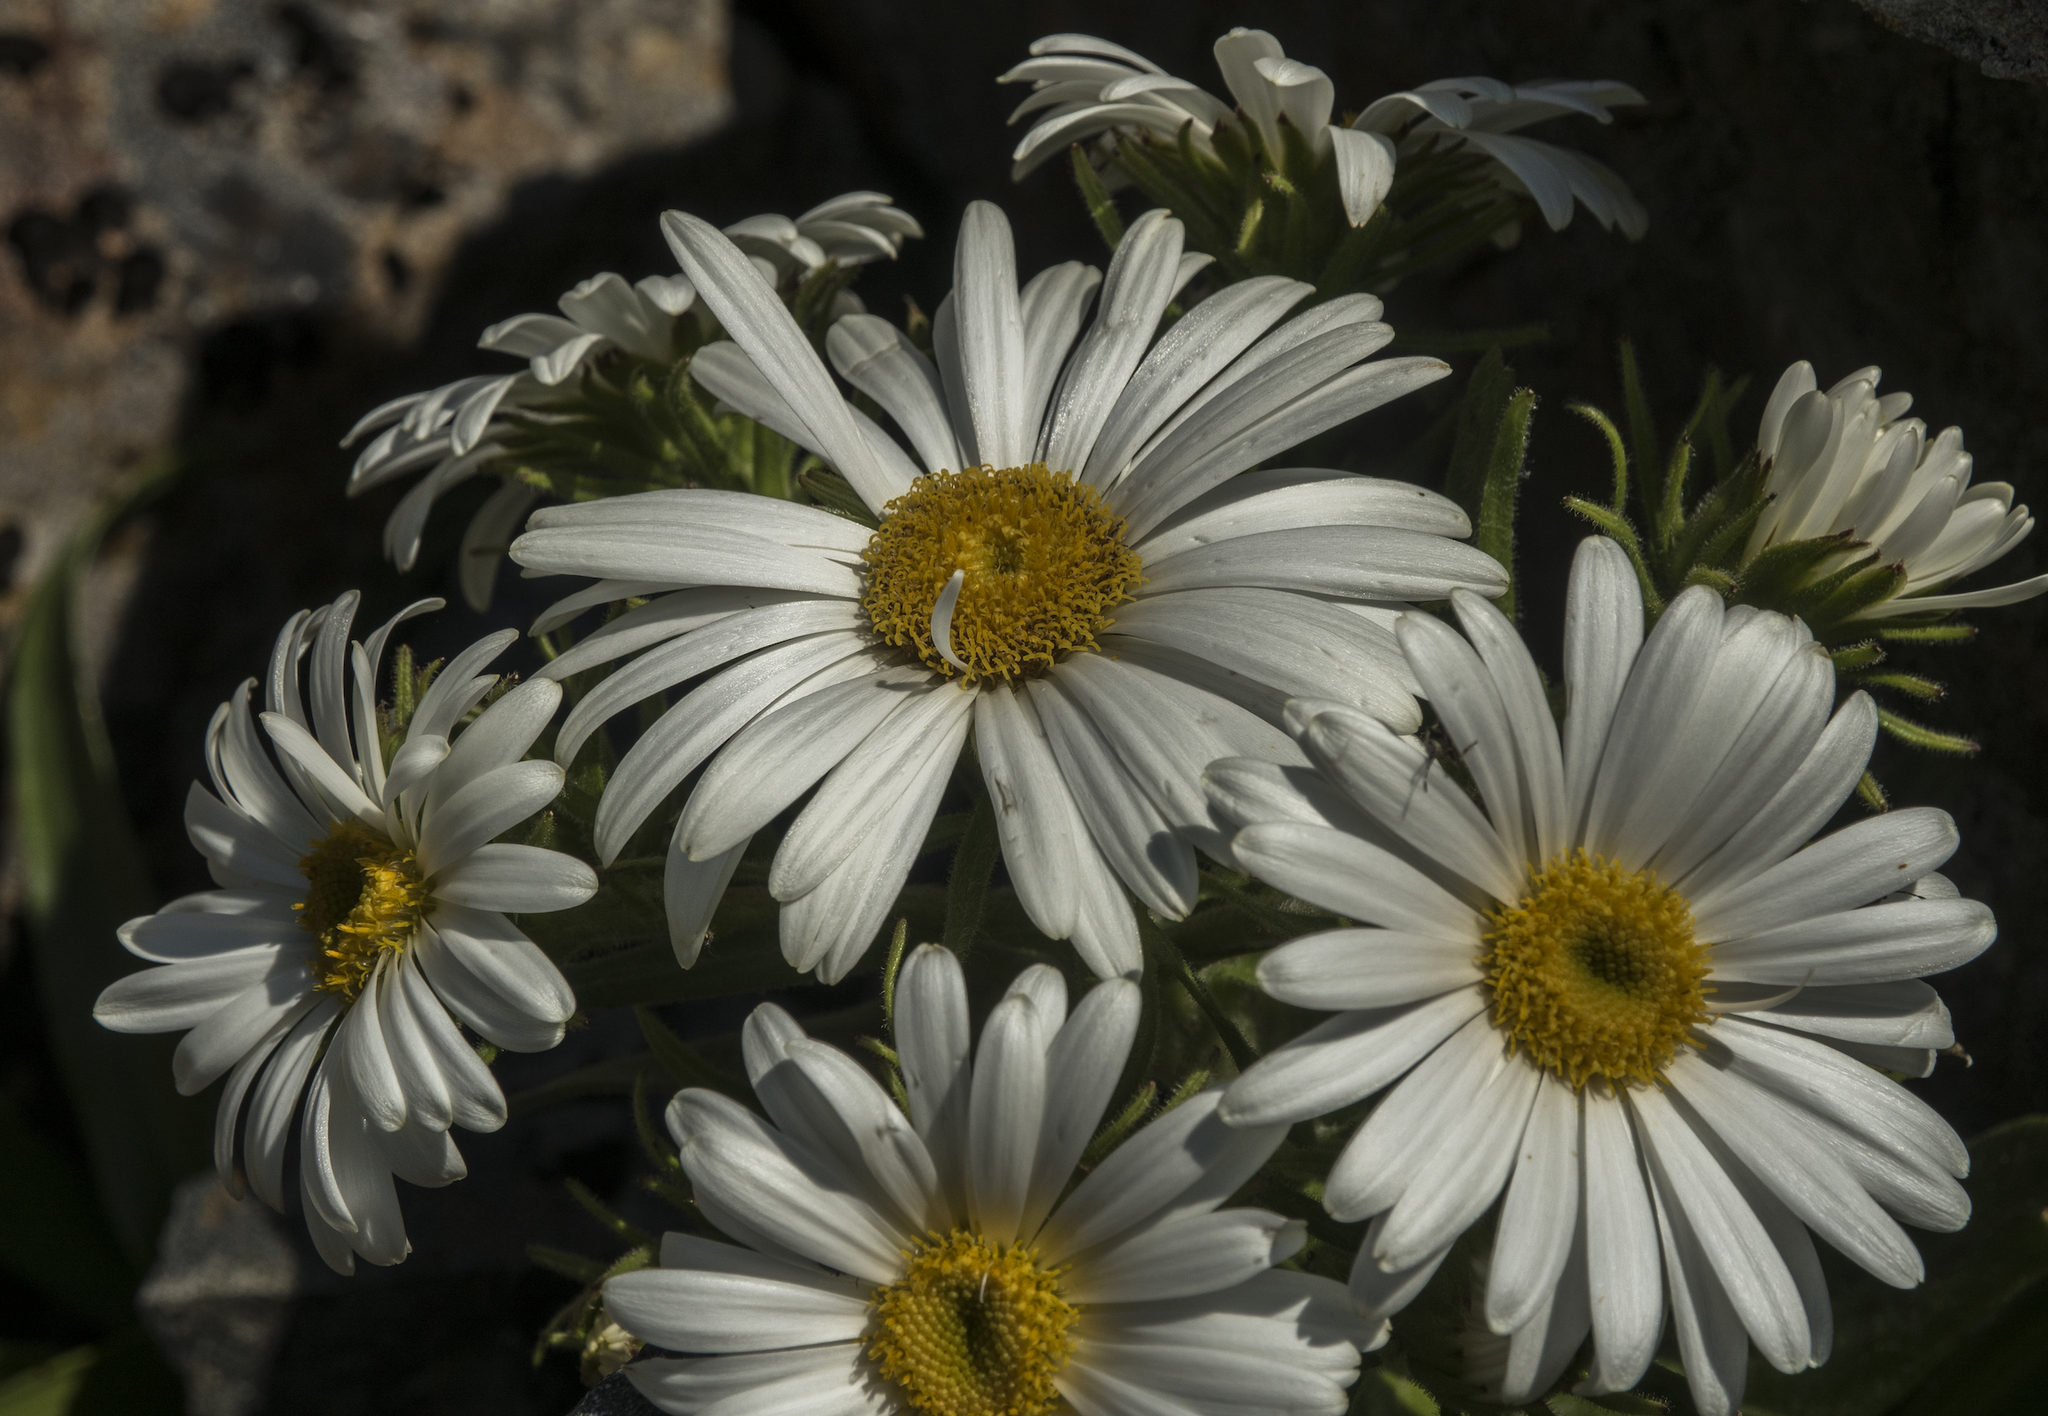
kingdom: Plantae
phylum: Tracheophyta
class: Magnoliopsida
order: Asterales
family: Asteraceae
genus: Dolichoglottis
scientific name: Dolichoglottis scorzoneroides
